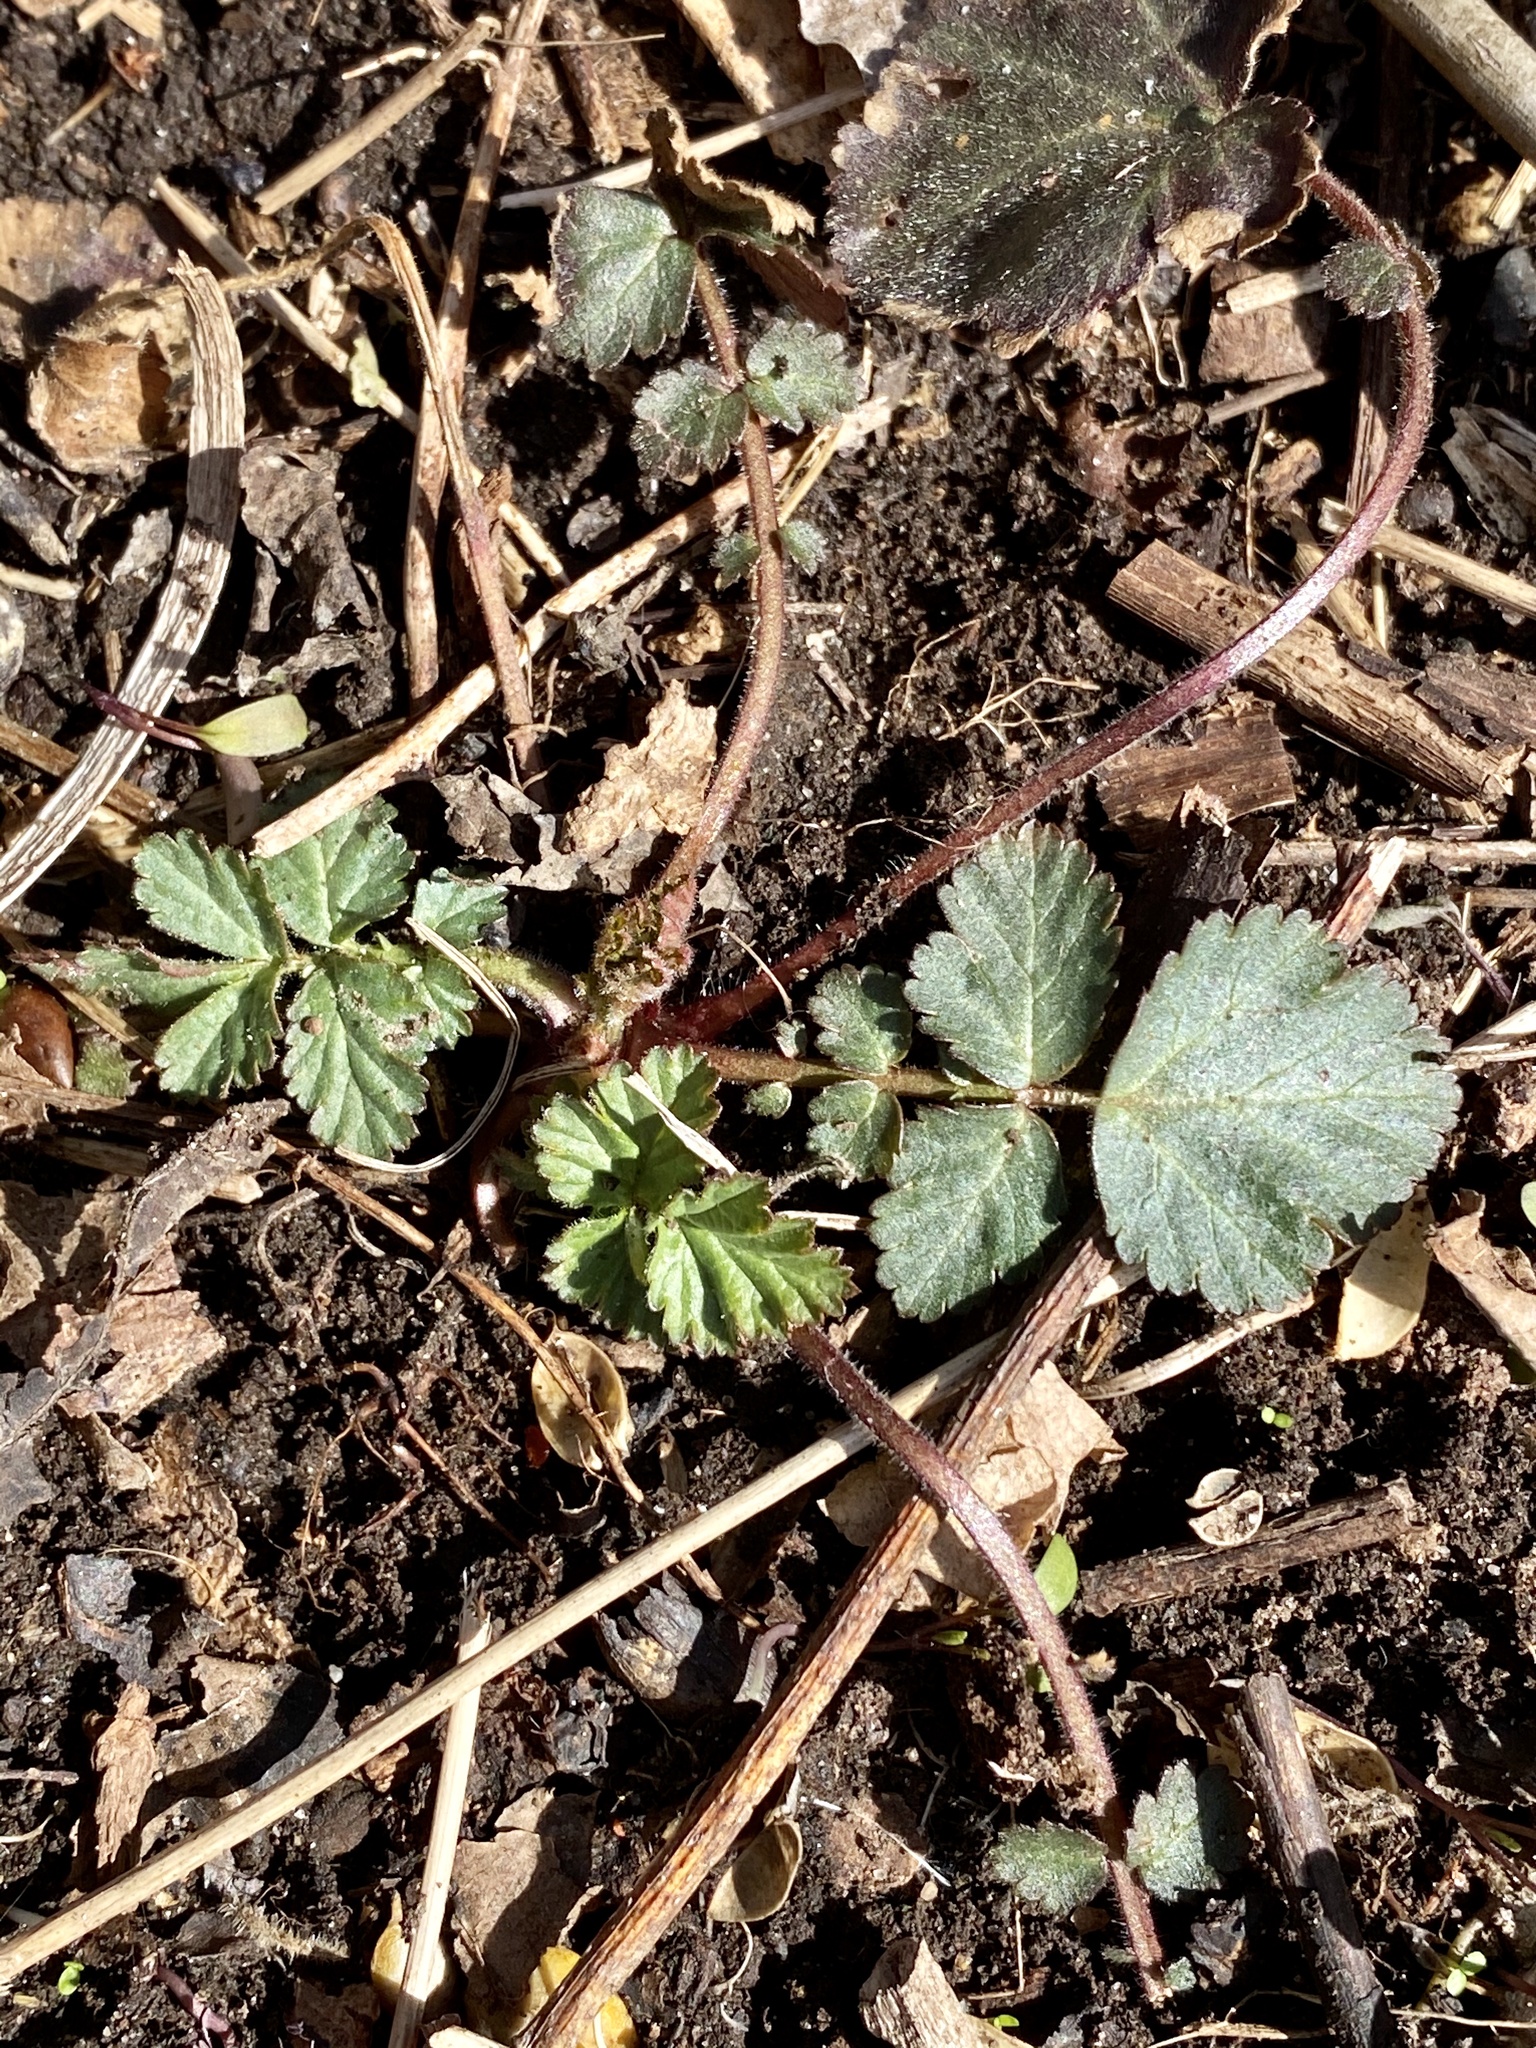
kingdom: Plantae
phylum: Tracheophyta
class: Magnoliopsida
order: Rosales
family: Rosaceae
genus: Geum
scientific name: Geum canadense
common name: White avens
